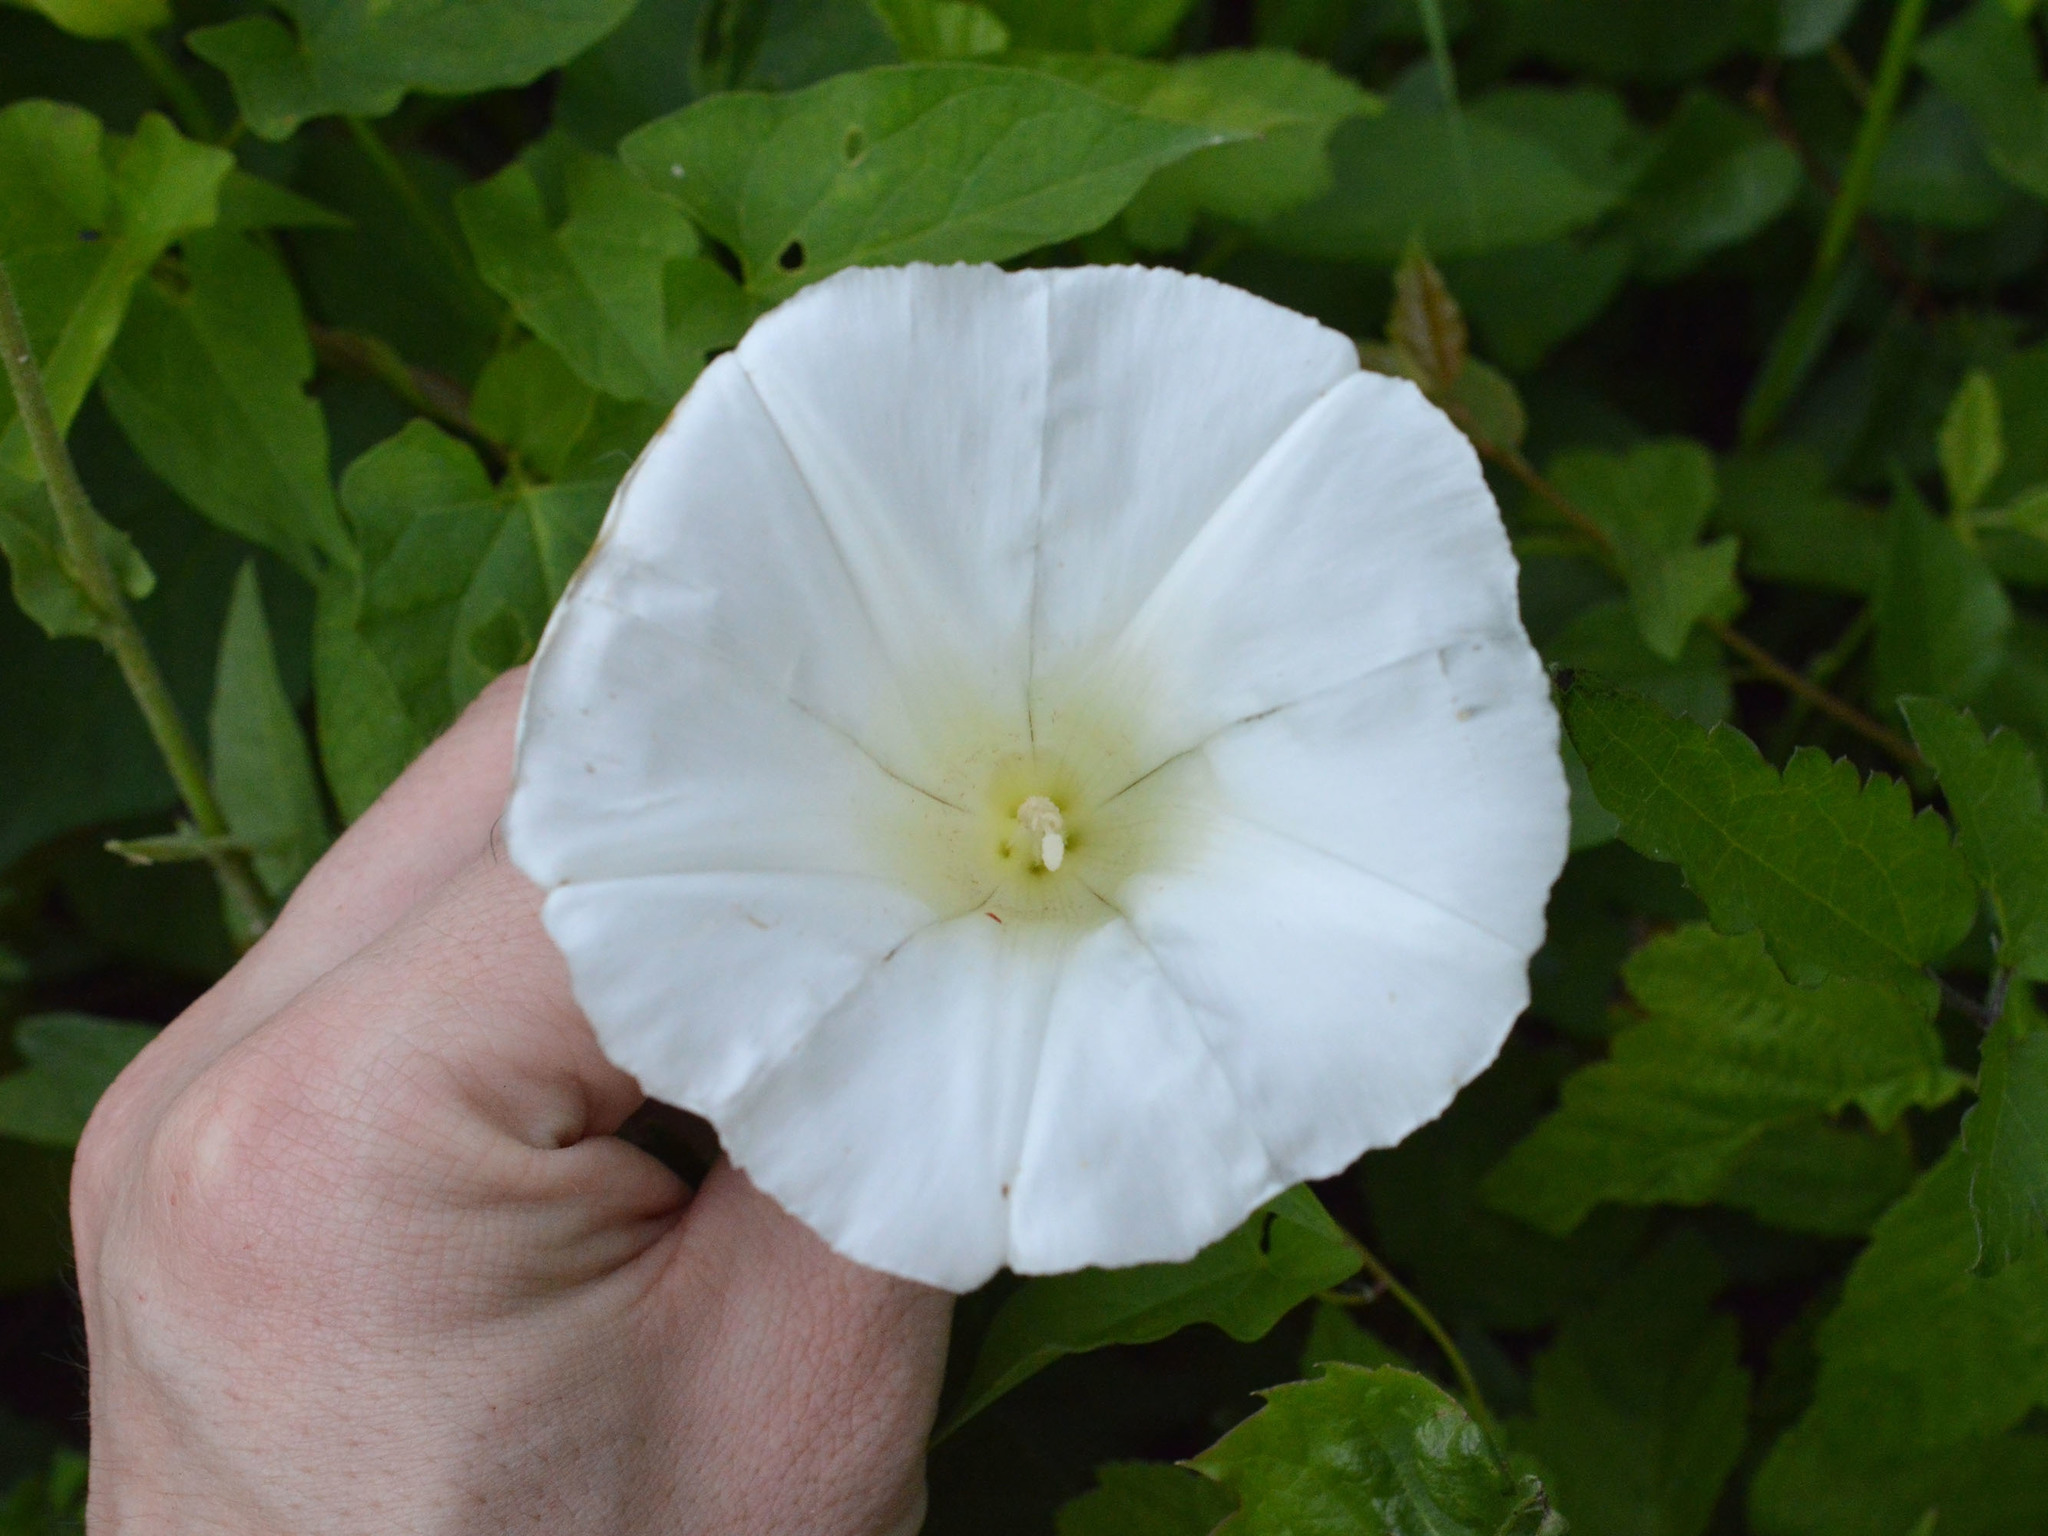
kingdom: Plantae
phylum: Tracheophyta
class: Magnoliopsida
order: Solanales
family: Convolvulaceae
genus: Calystegia
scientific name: Calystegia silvatica
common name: Large bindweed
